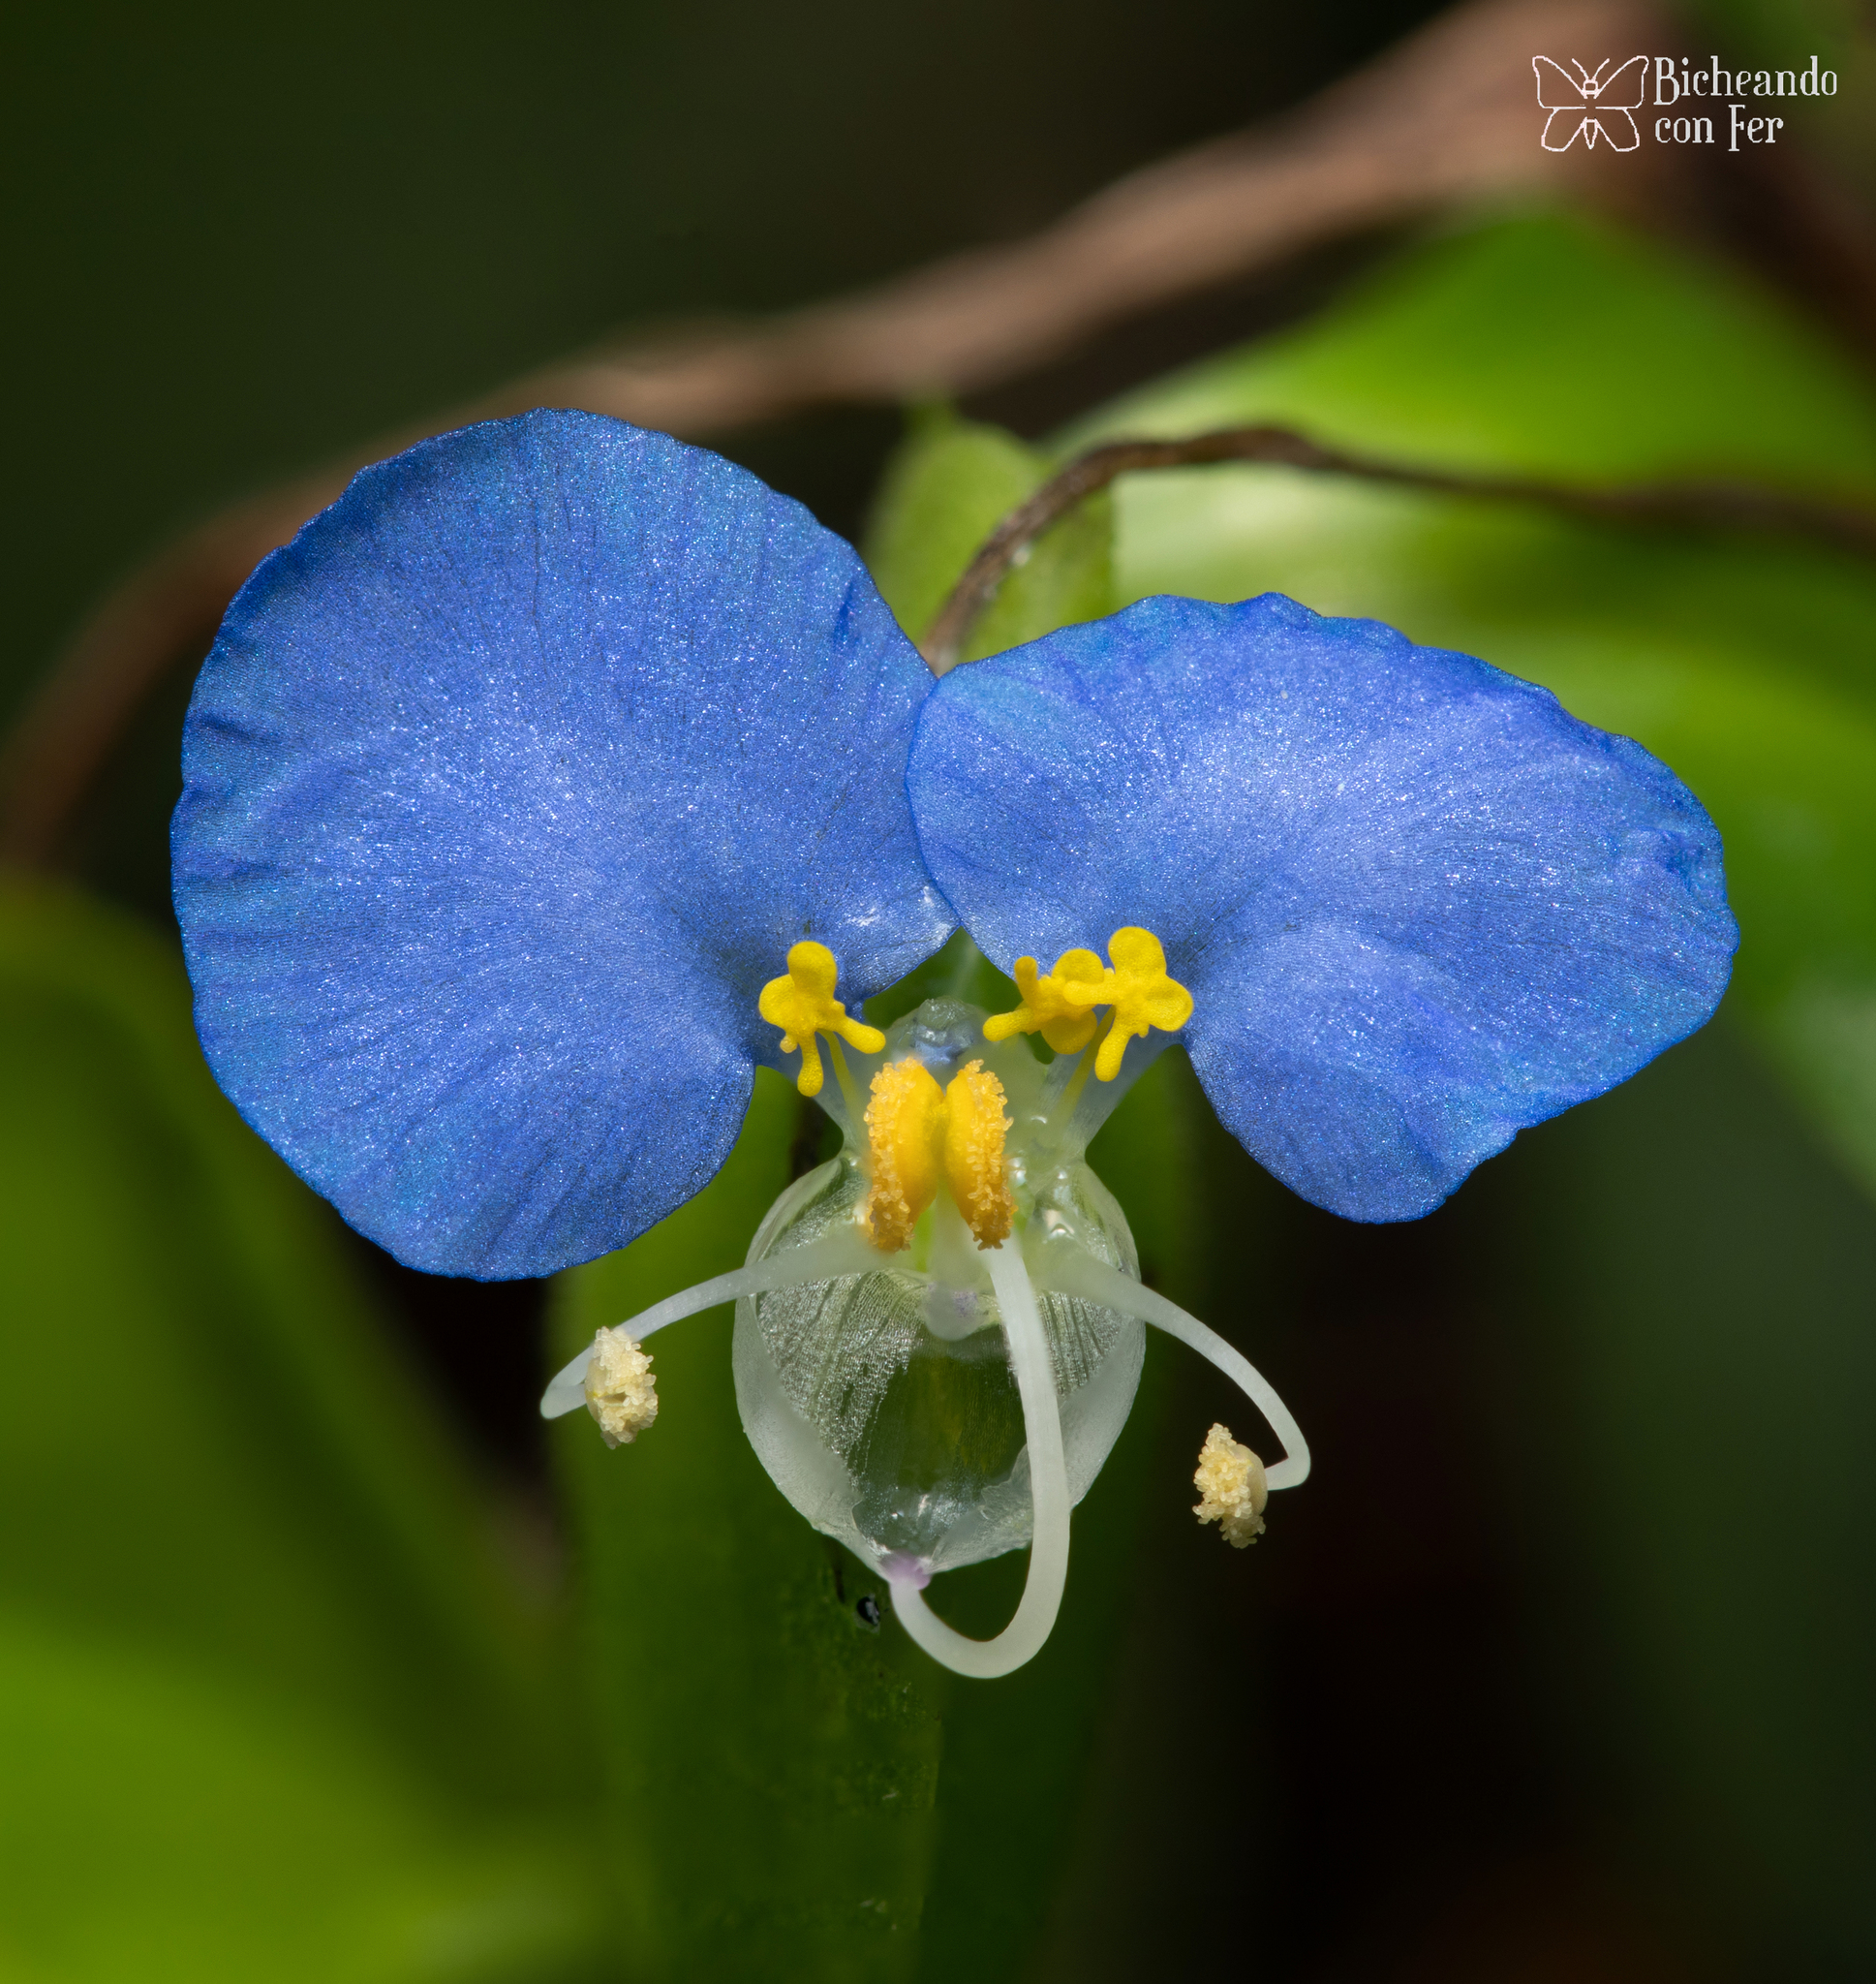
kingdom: Plantae
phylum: Tracheophyta
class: Liliopsida
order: Commelinales
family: Commelinaceae
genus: Commelina
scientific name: Commelina erecta
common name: Blousel blommetjie
